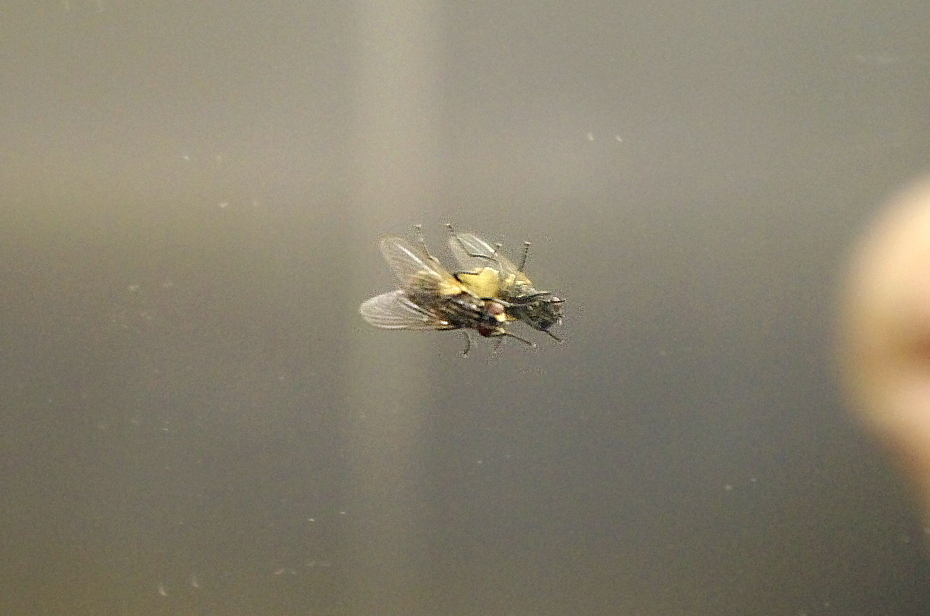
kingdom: Animalia
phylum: Arthropoda
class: Insecta
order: Diptera
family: Muscidae
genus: Musca
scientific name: Musca domestica
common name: House fly
